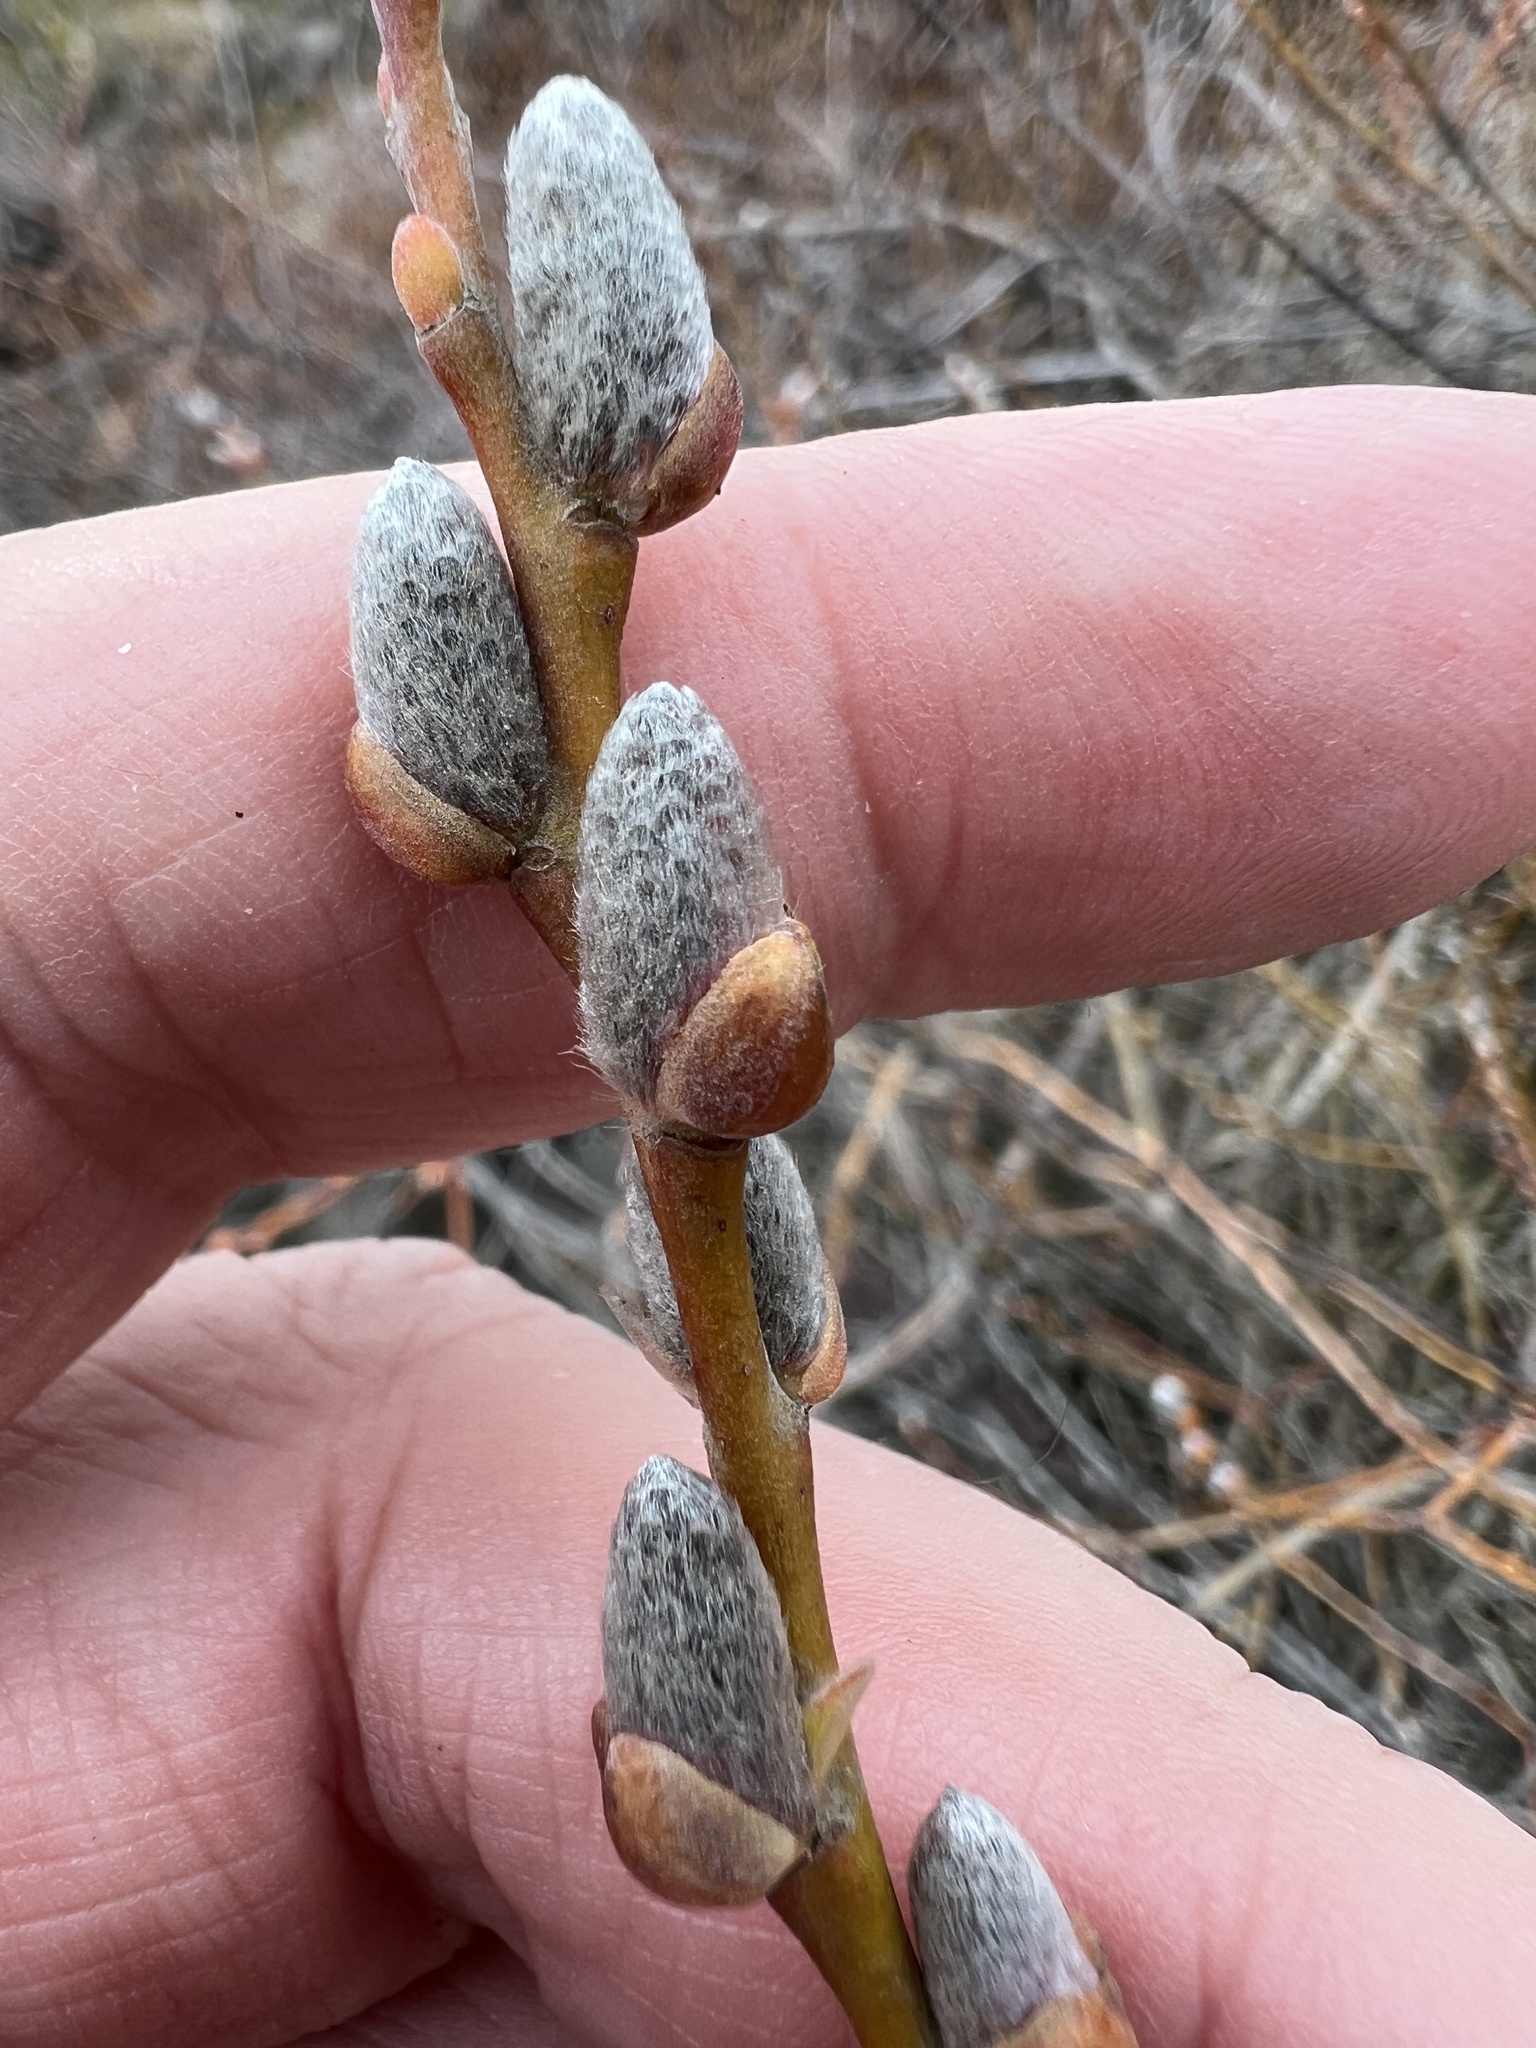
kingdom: Plantae
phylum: Tracheophyta
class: Magnoliopsida
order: Malpighiales
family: Salicaceae
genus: Salix
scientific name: Salix prolixa
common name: Mackenzie's willow
